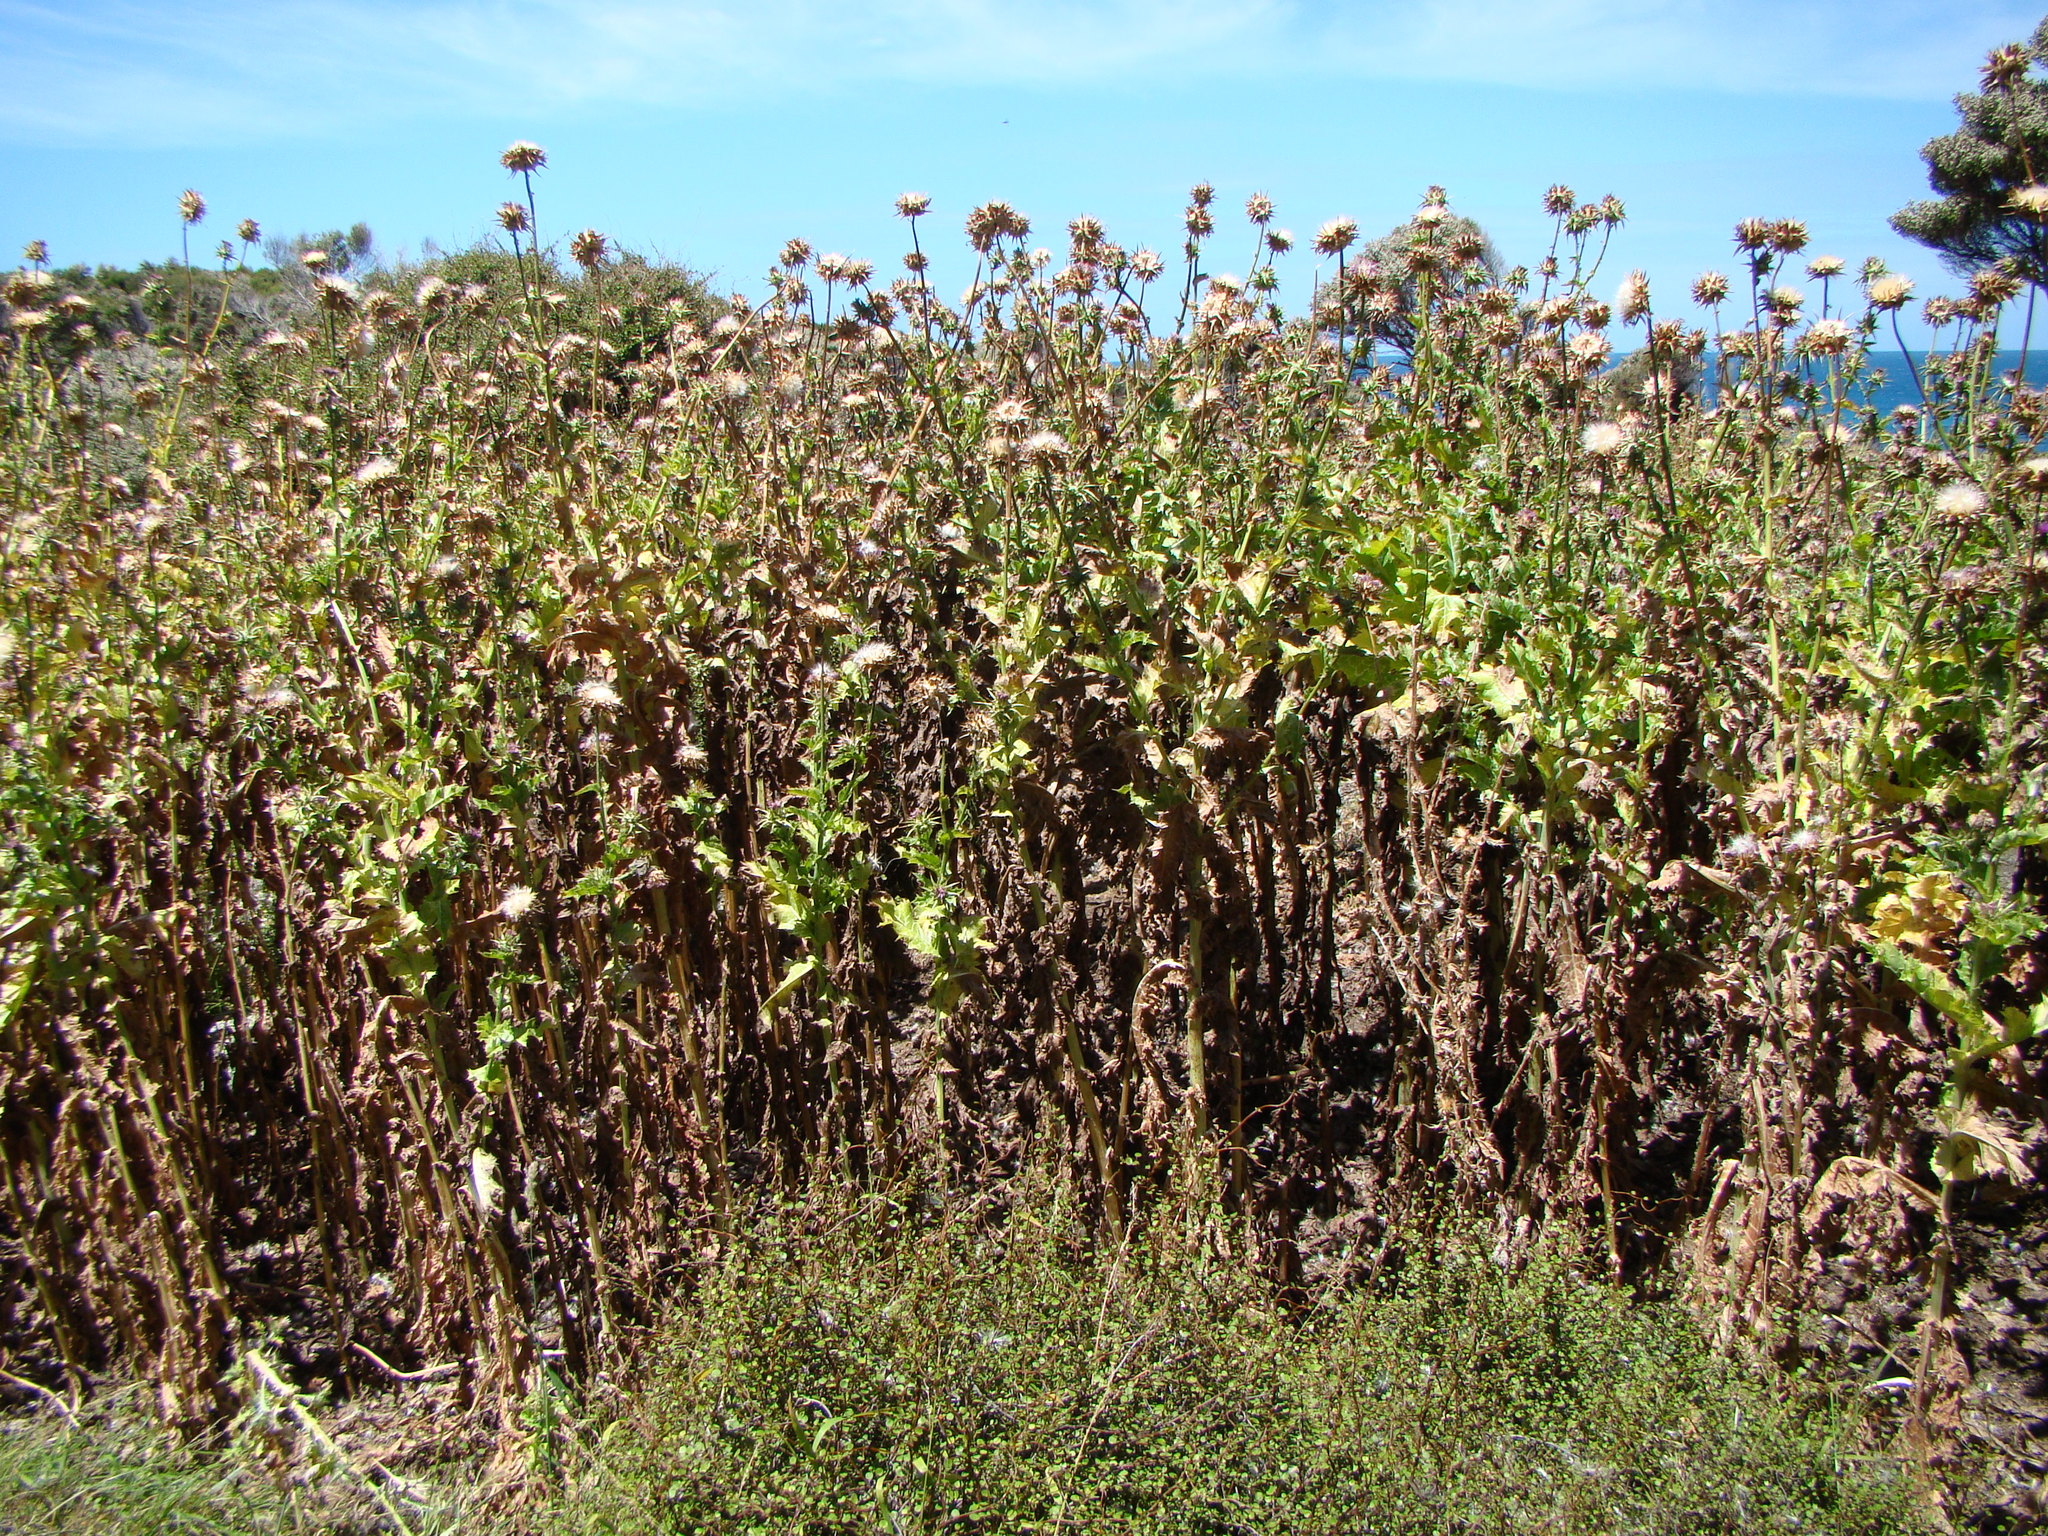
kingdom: Plantae
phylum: Tracheophyta
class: Magnoliopsida
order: Asterales
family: Asteraceae
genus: Silybum
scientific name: Silybum marianum
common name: Milk thistle
